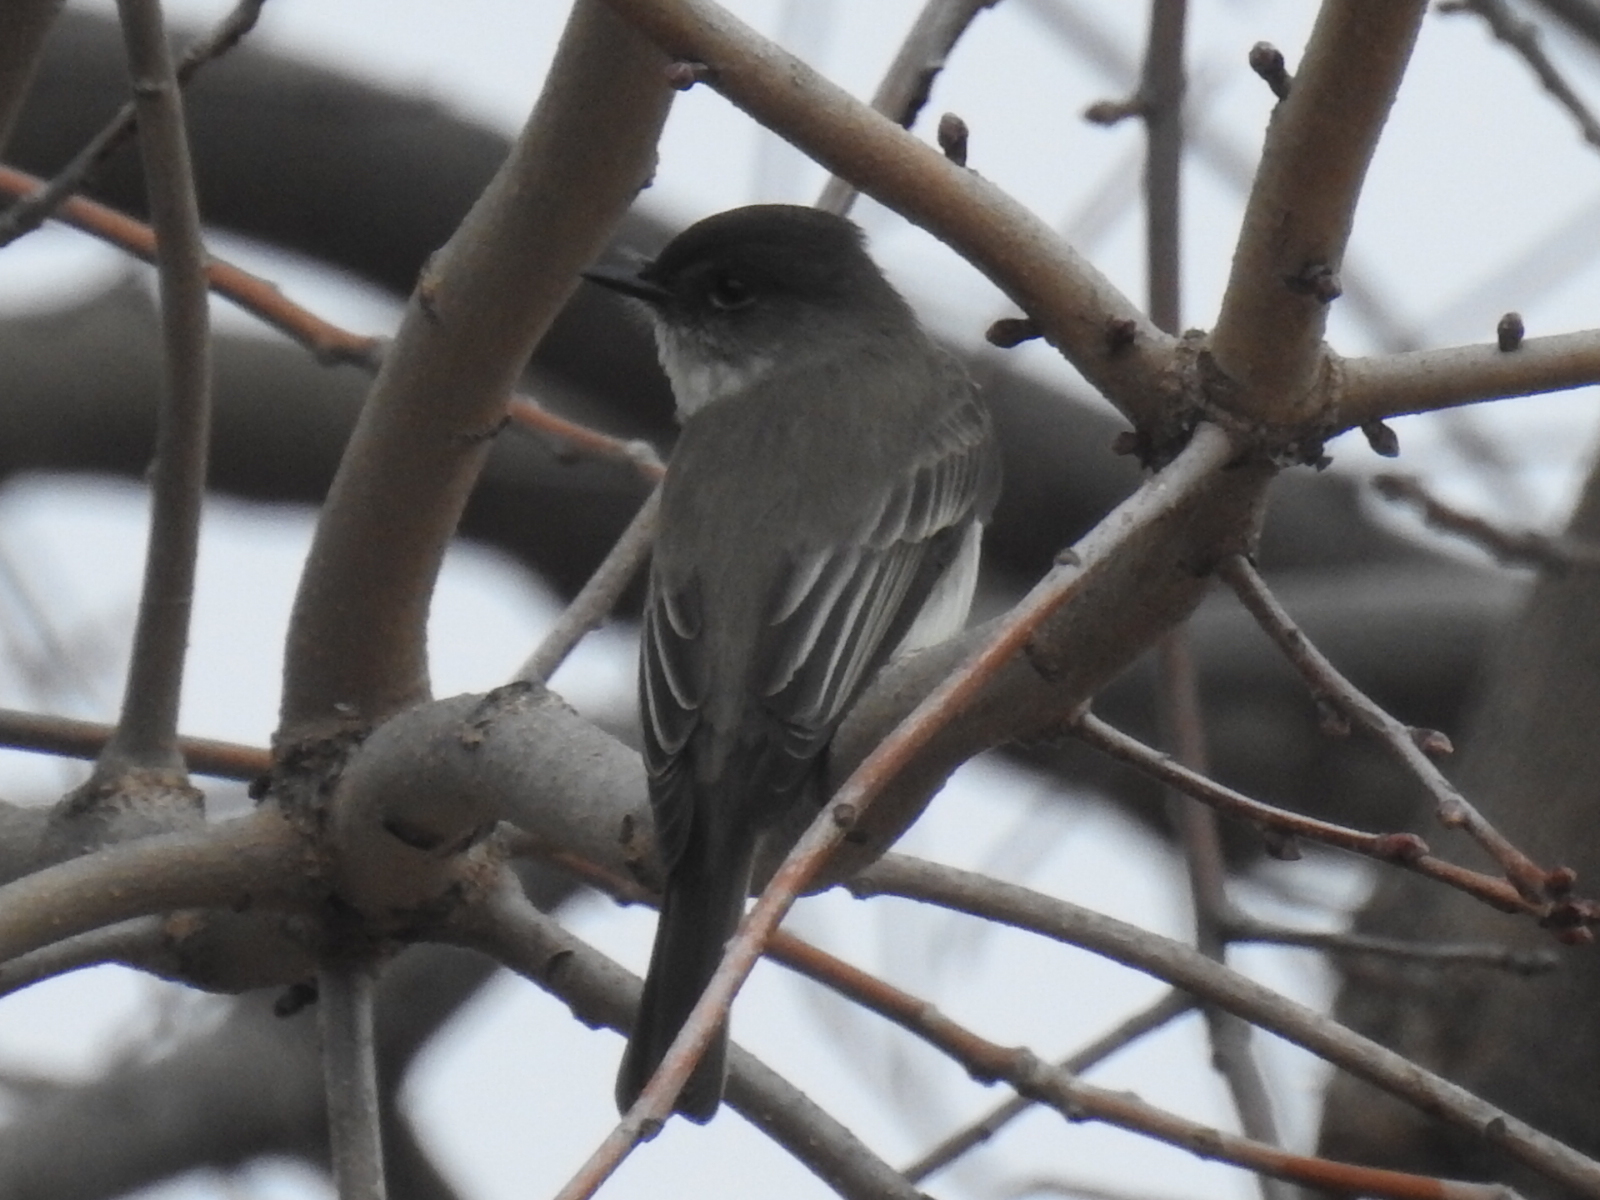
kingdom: Animalia
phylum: Chordata
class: Aves
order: Passeriformes
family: Tyrannidae
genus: Sayornis
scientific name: Sayornis phoebe
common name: Eastern phoebe
